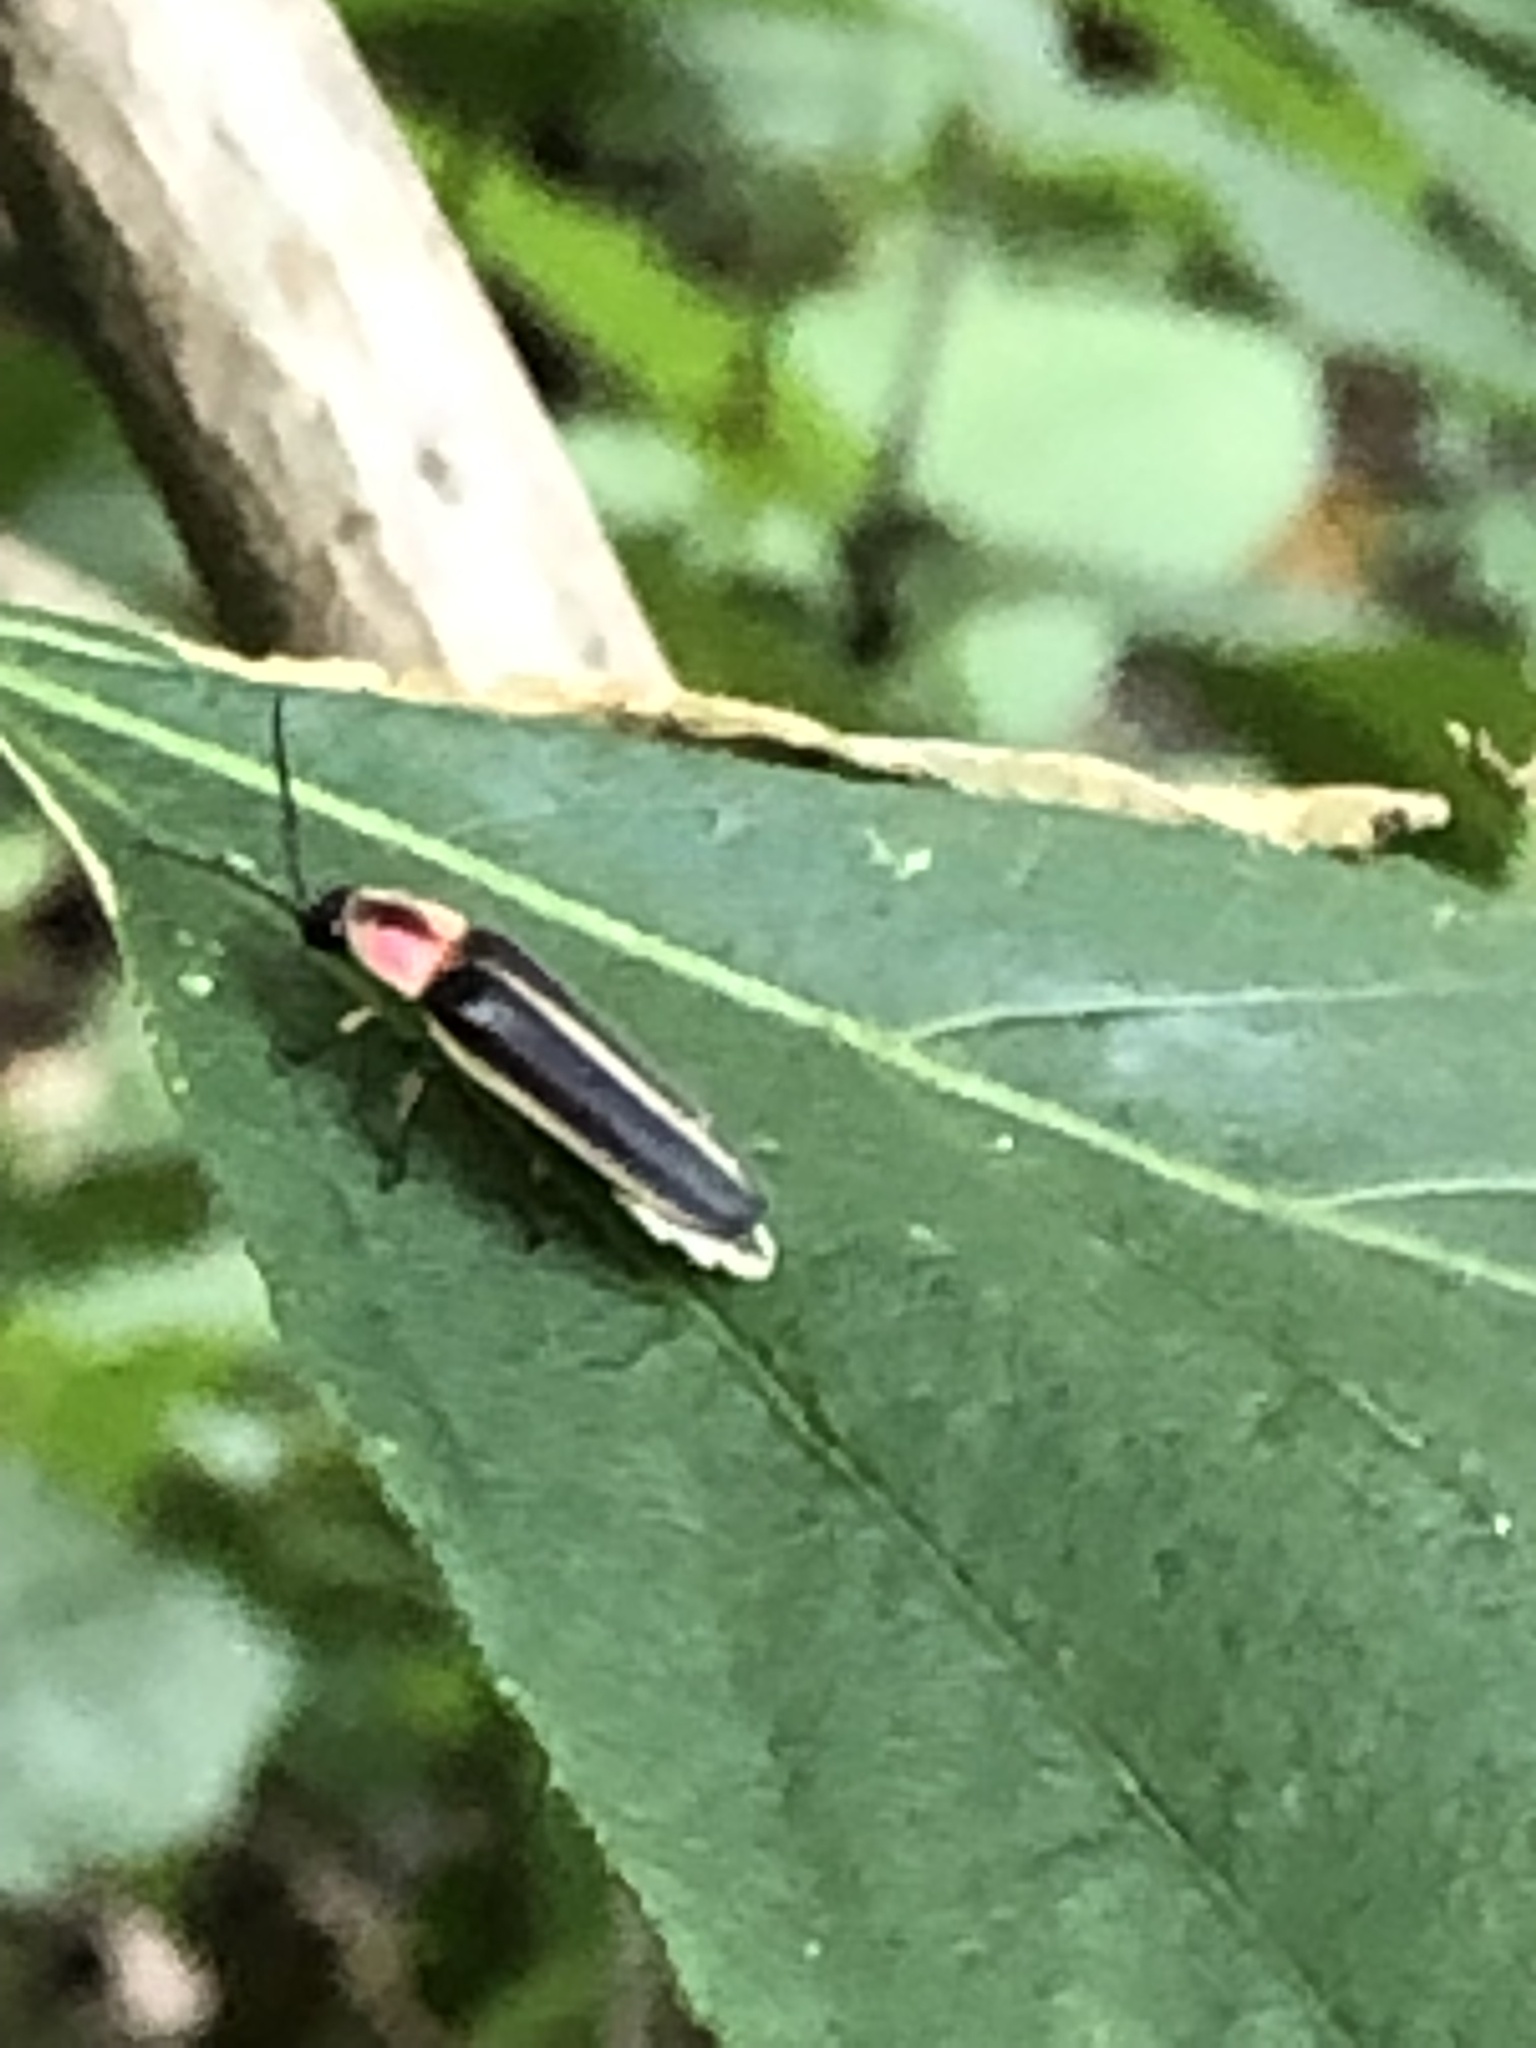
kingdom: Animalia
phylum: Arthropoda
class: Insecta
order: Coleoptera
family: Lampyridae
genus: Photinus
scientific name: Photinus pyralis
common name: Big dipper firefly
